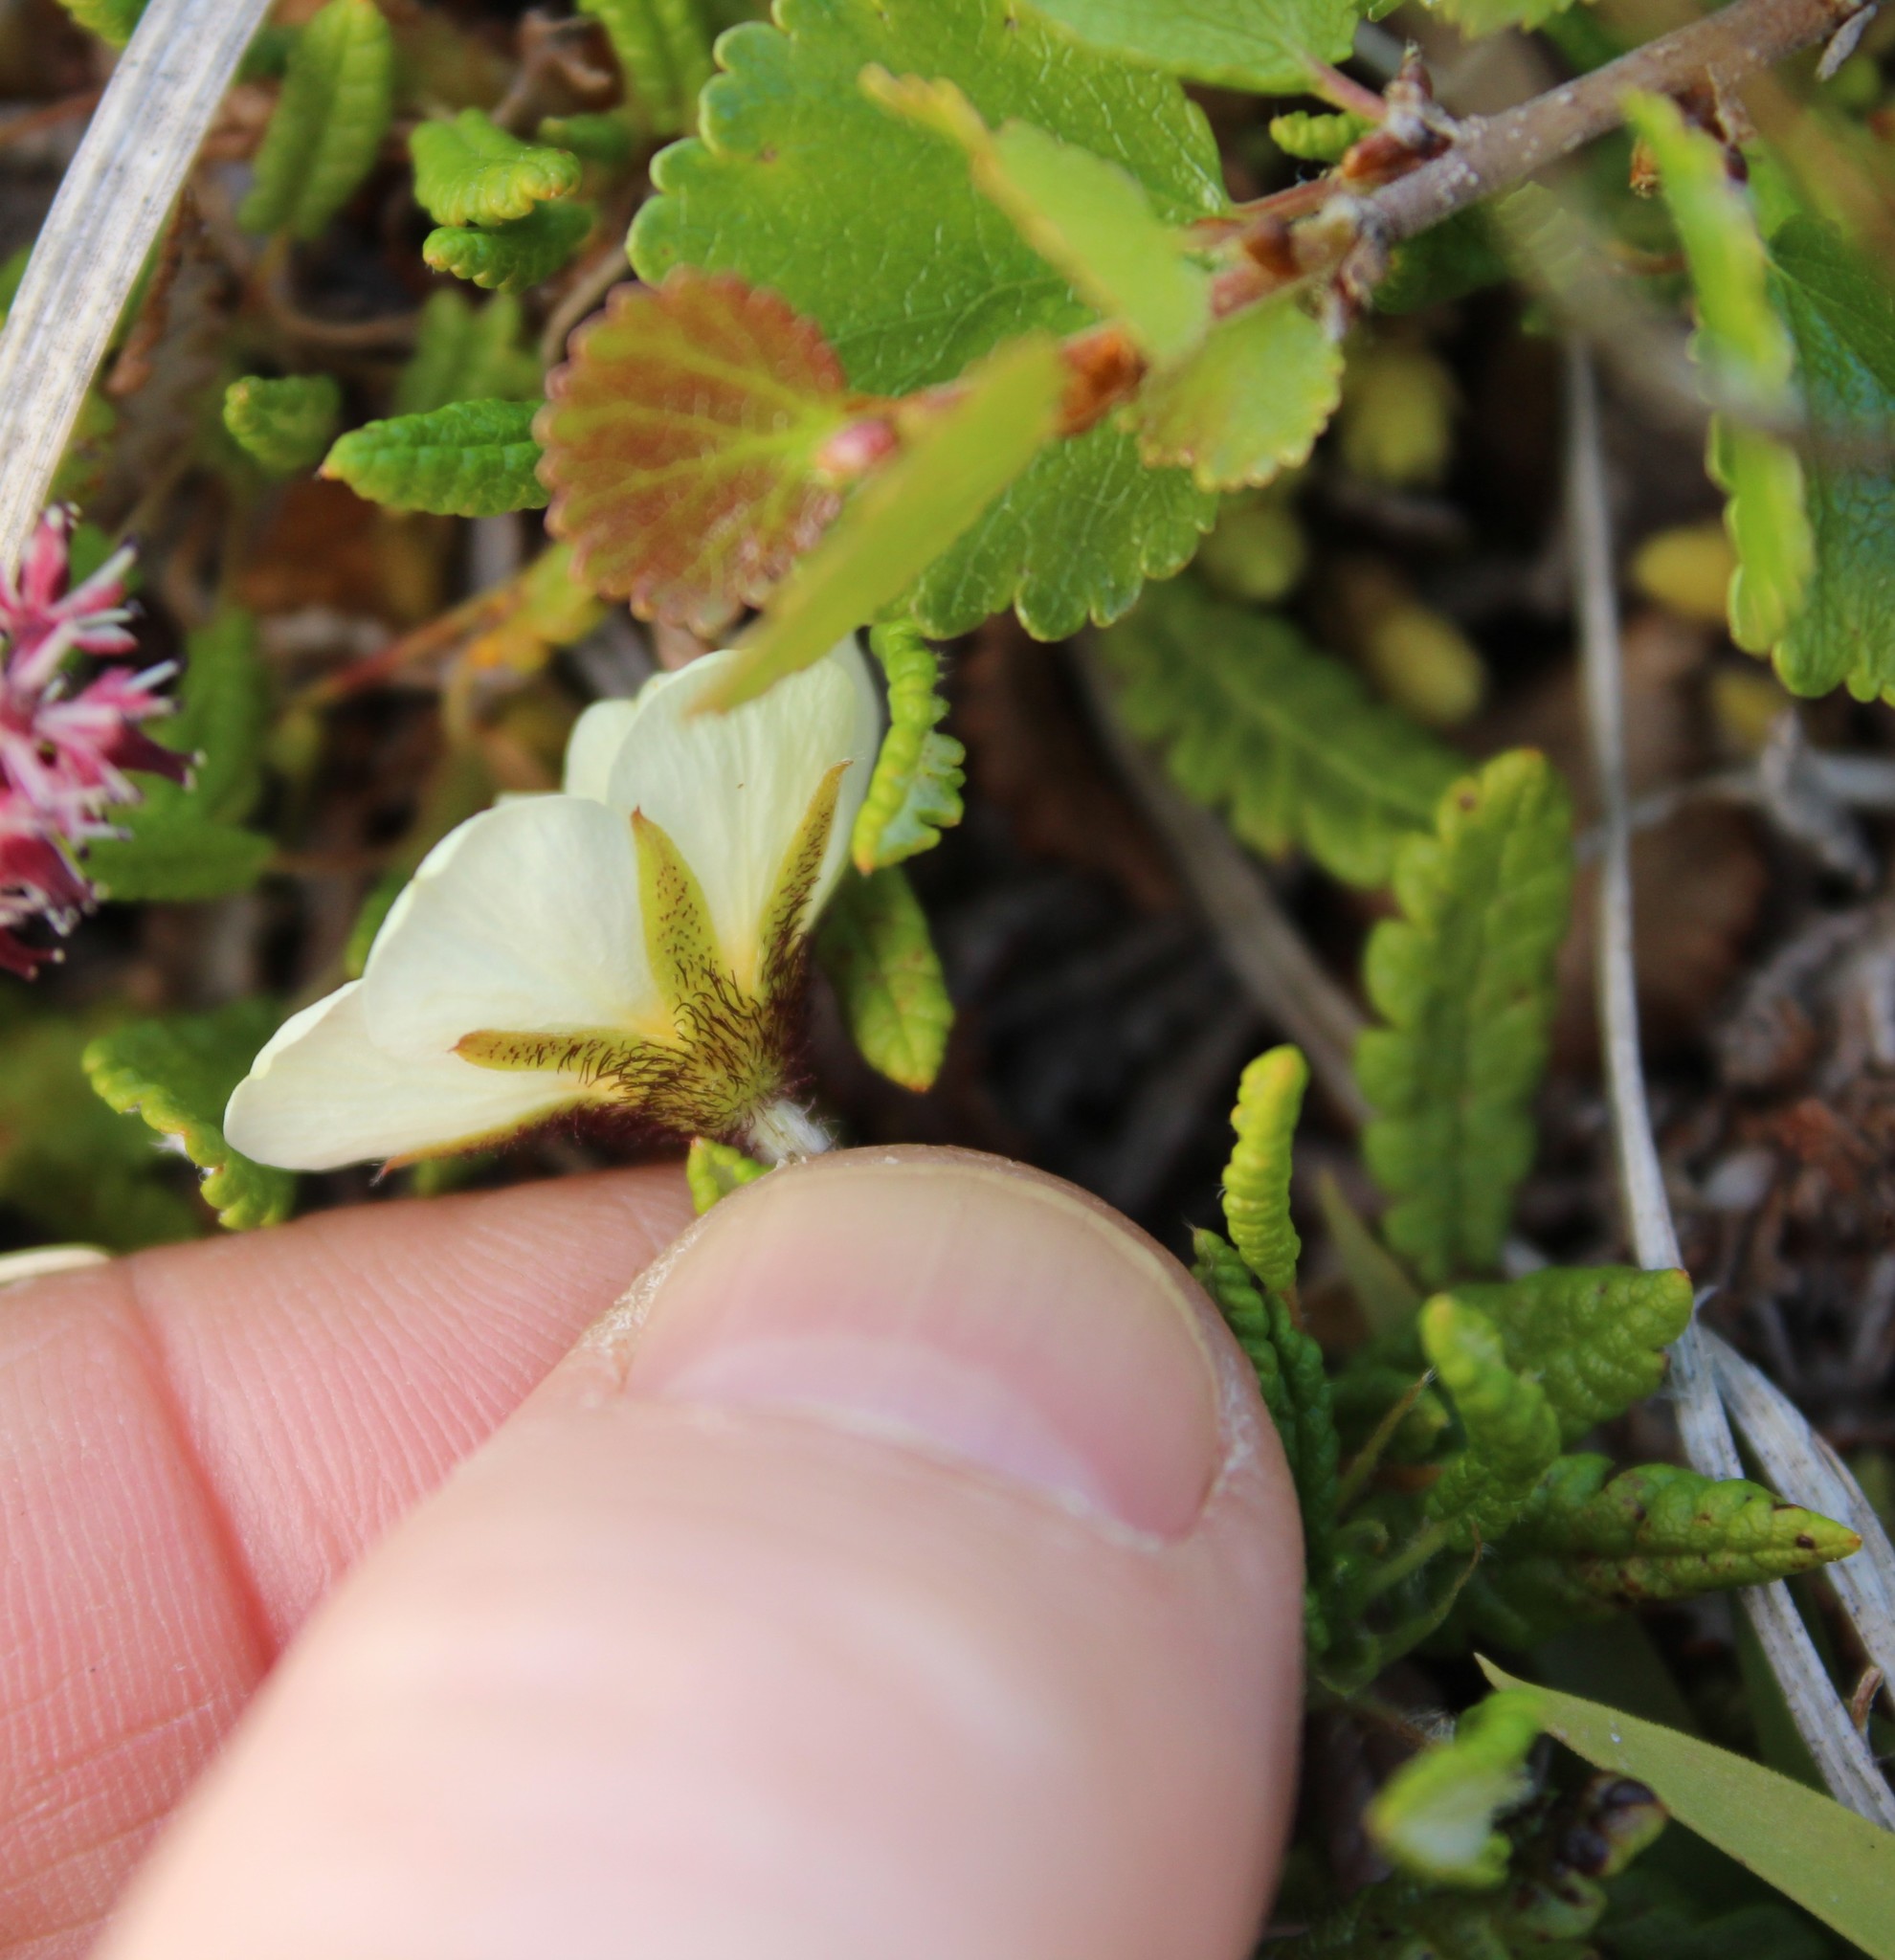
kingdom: Plantae
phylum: Tracheophyta
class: Magnoliopsida
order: Rosales
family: Rosaceae
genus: Dryas
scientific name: Dryas octopetala
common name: Eight-petal mountain-avens
